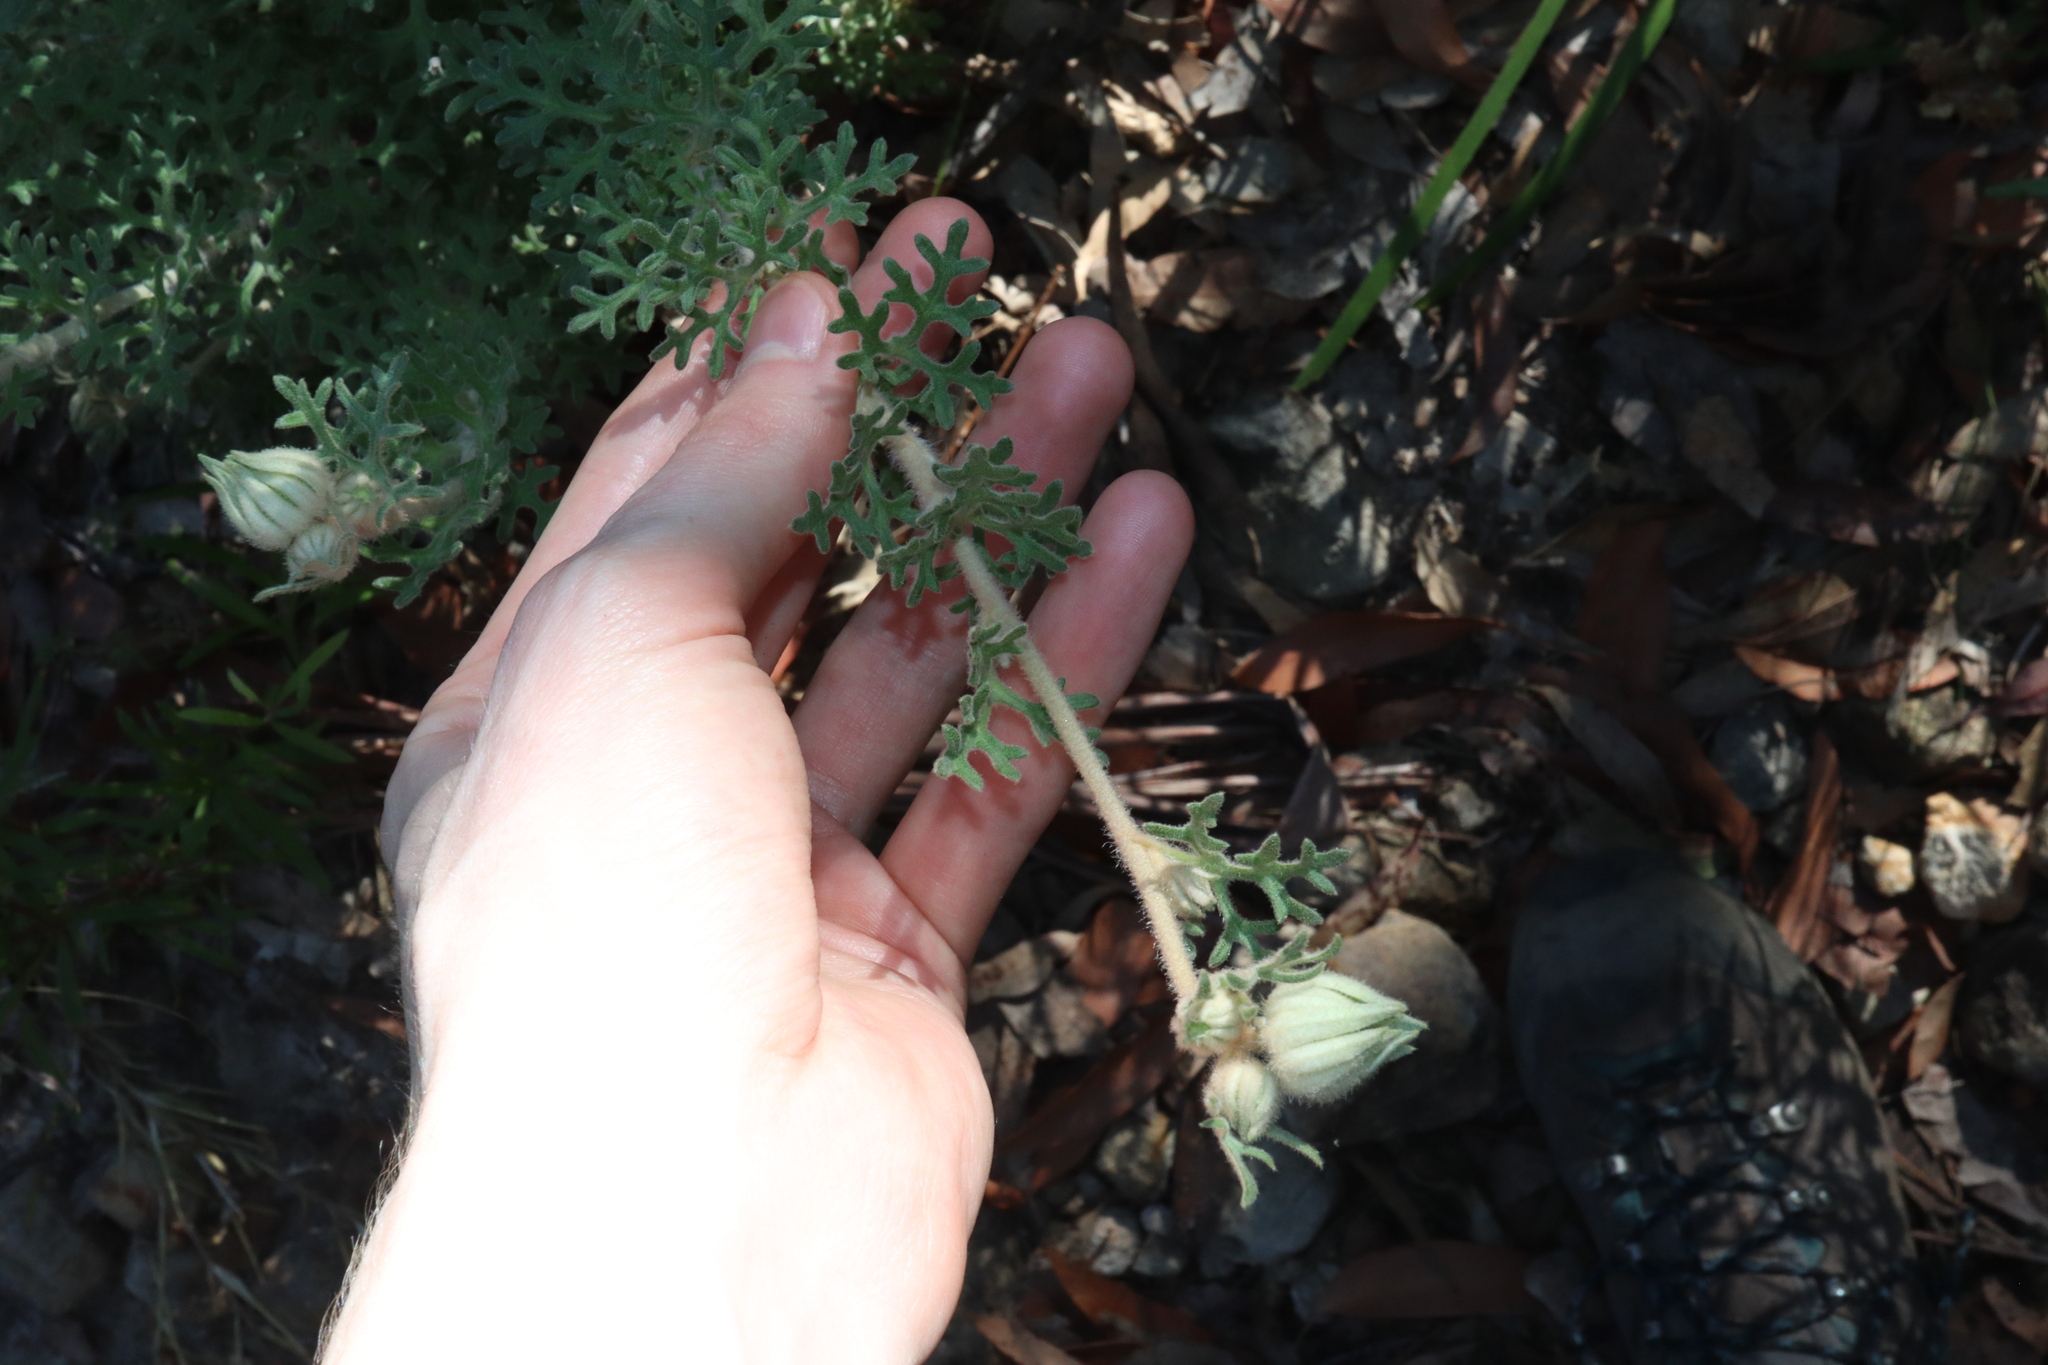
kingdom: Plantae
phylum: Tracheophyta
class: Magnoliopsida
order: Apiales
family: Apiaceae
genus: Actinotus
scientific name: Actinotus helianthi
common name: Flannel-flower
